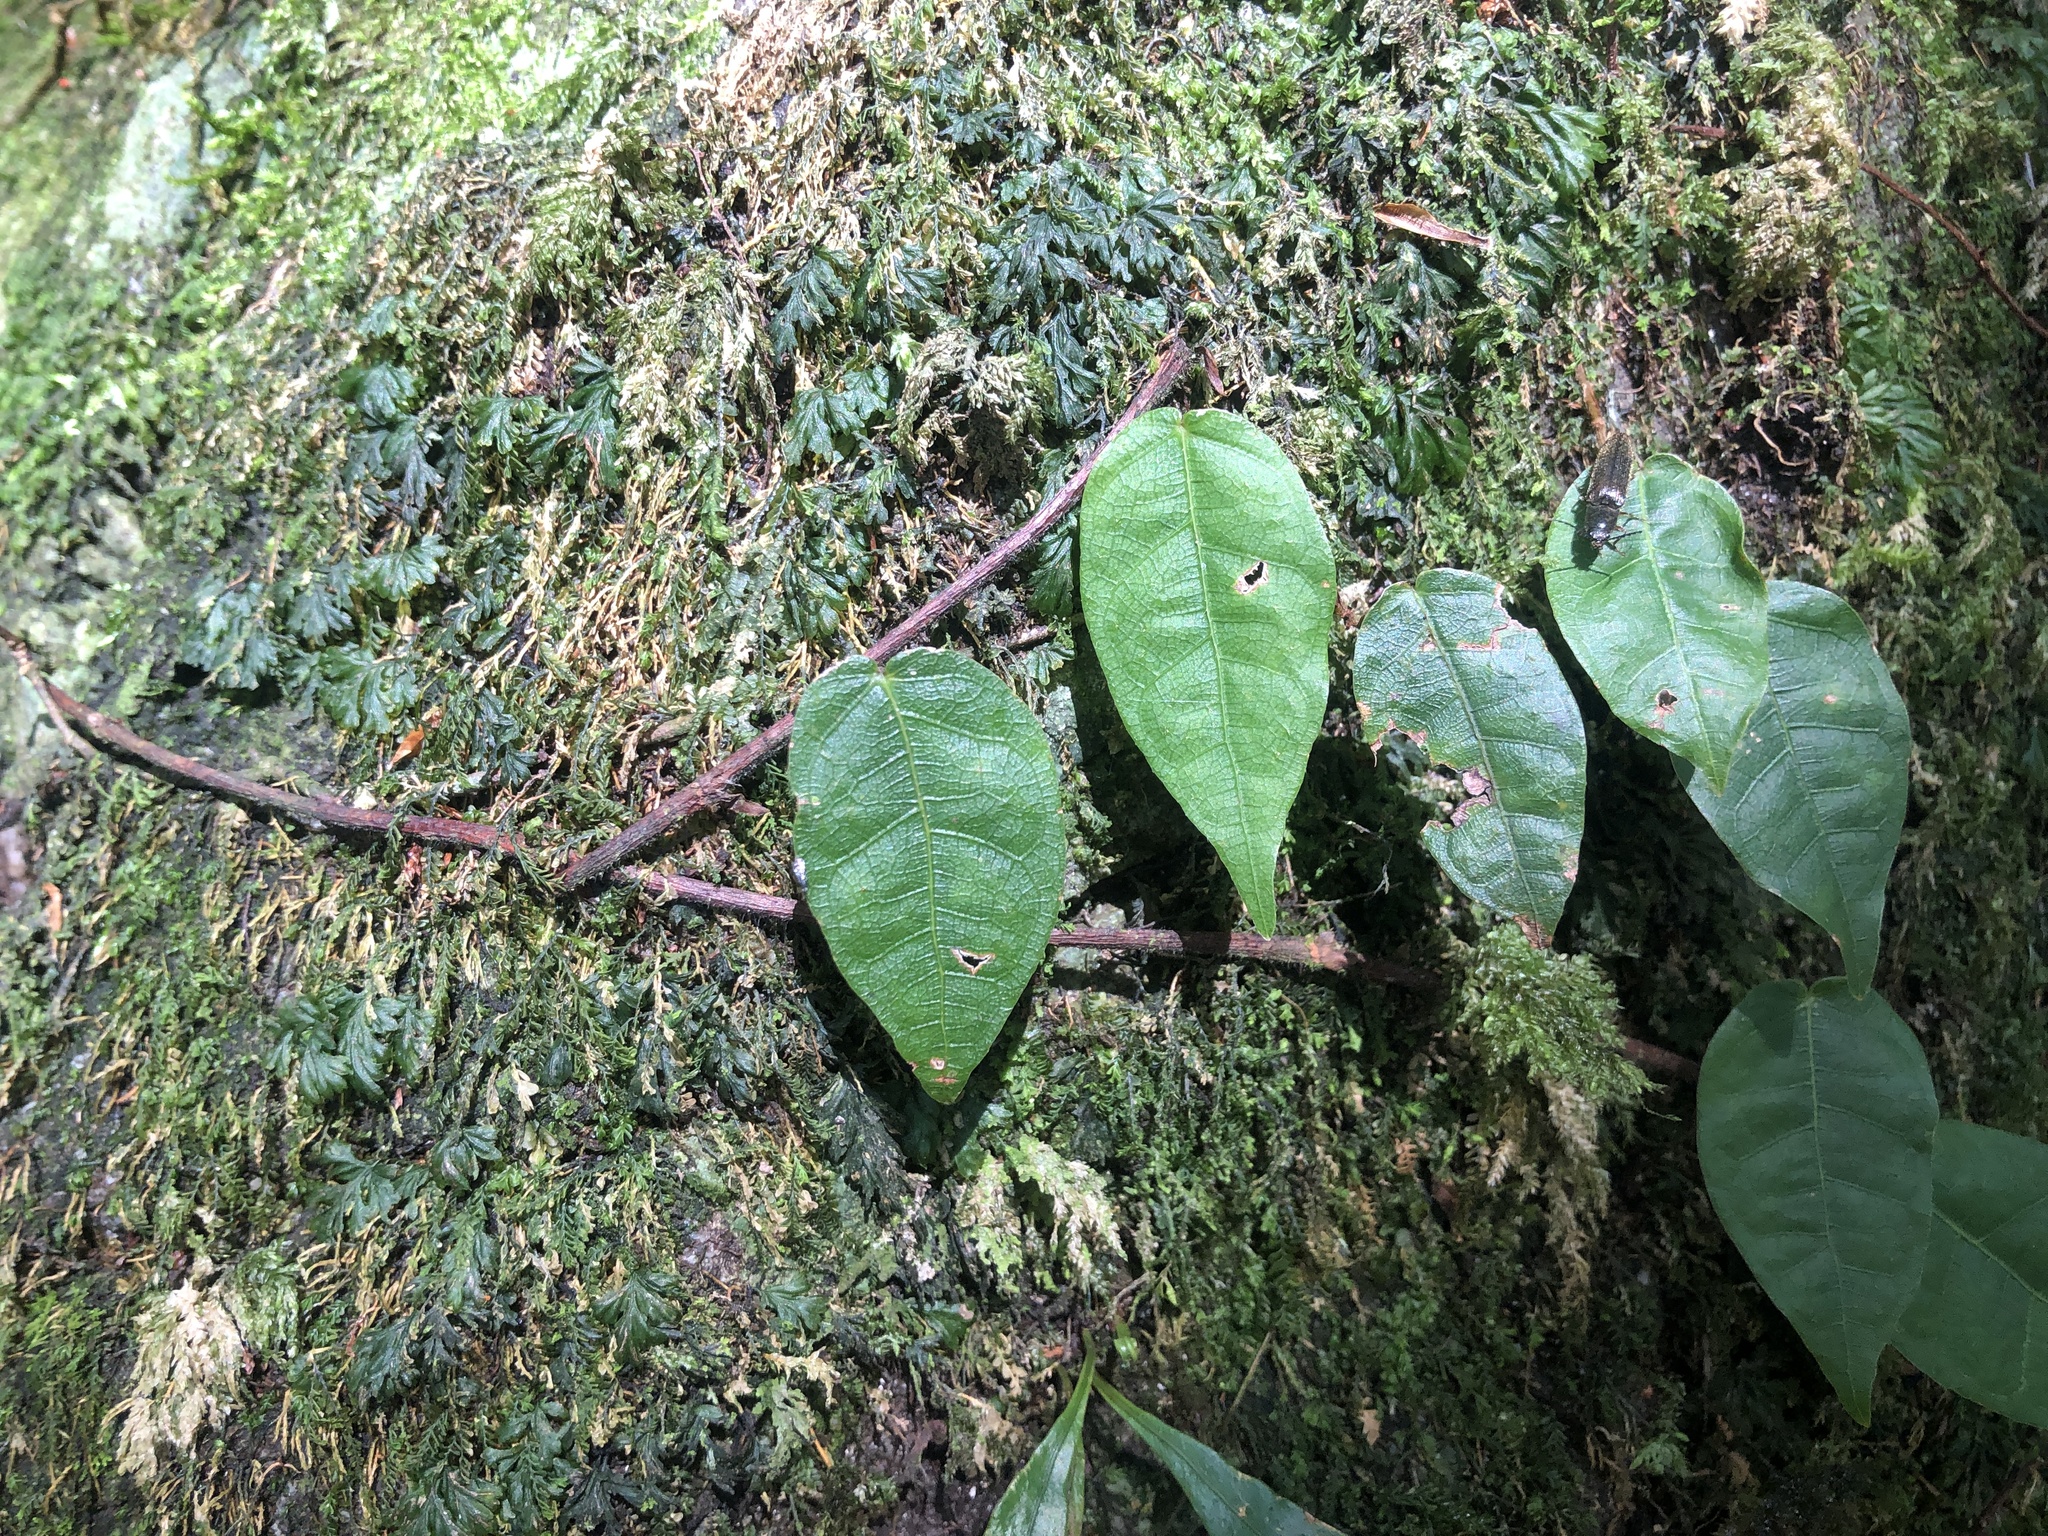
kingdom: Plantae
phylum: Tracheophyta
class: Magnoliopsida
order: Rosales
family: Moraceae
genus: Ficus
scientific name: Ficus sarmentosa
